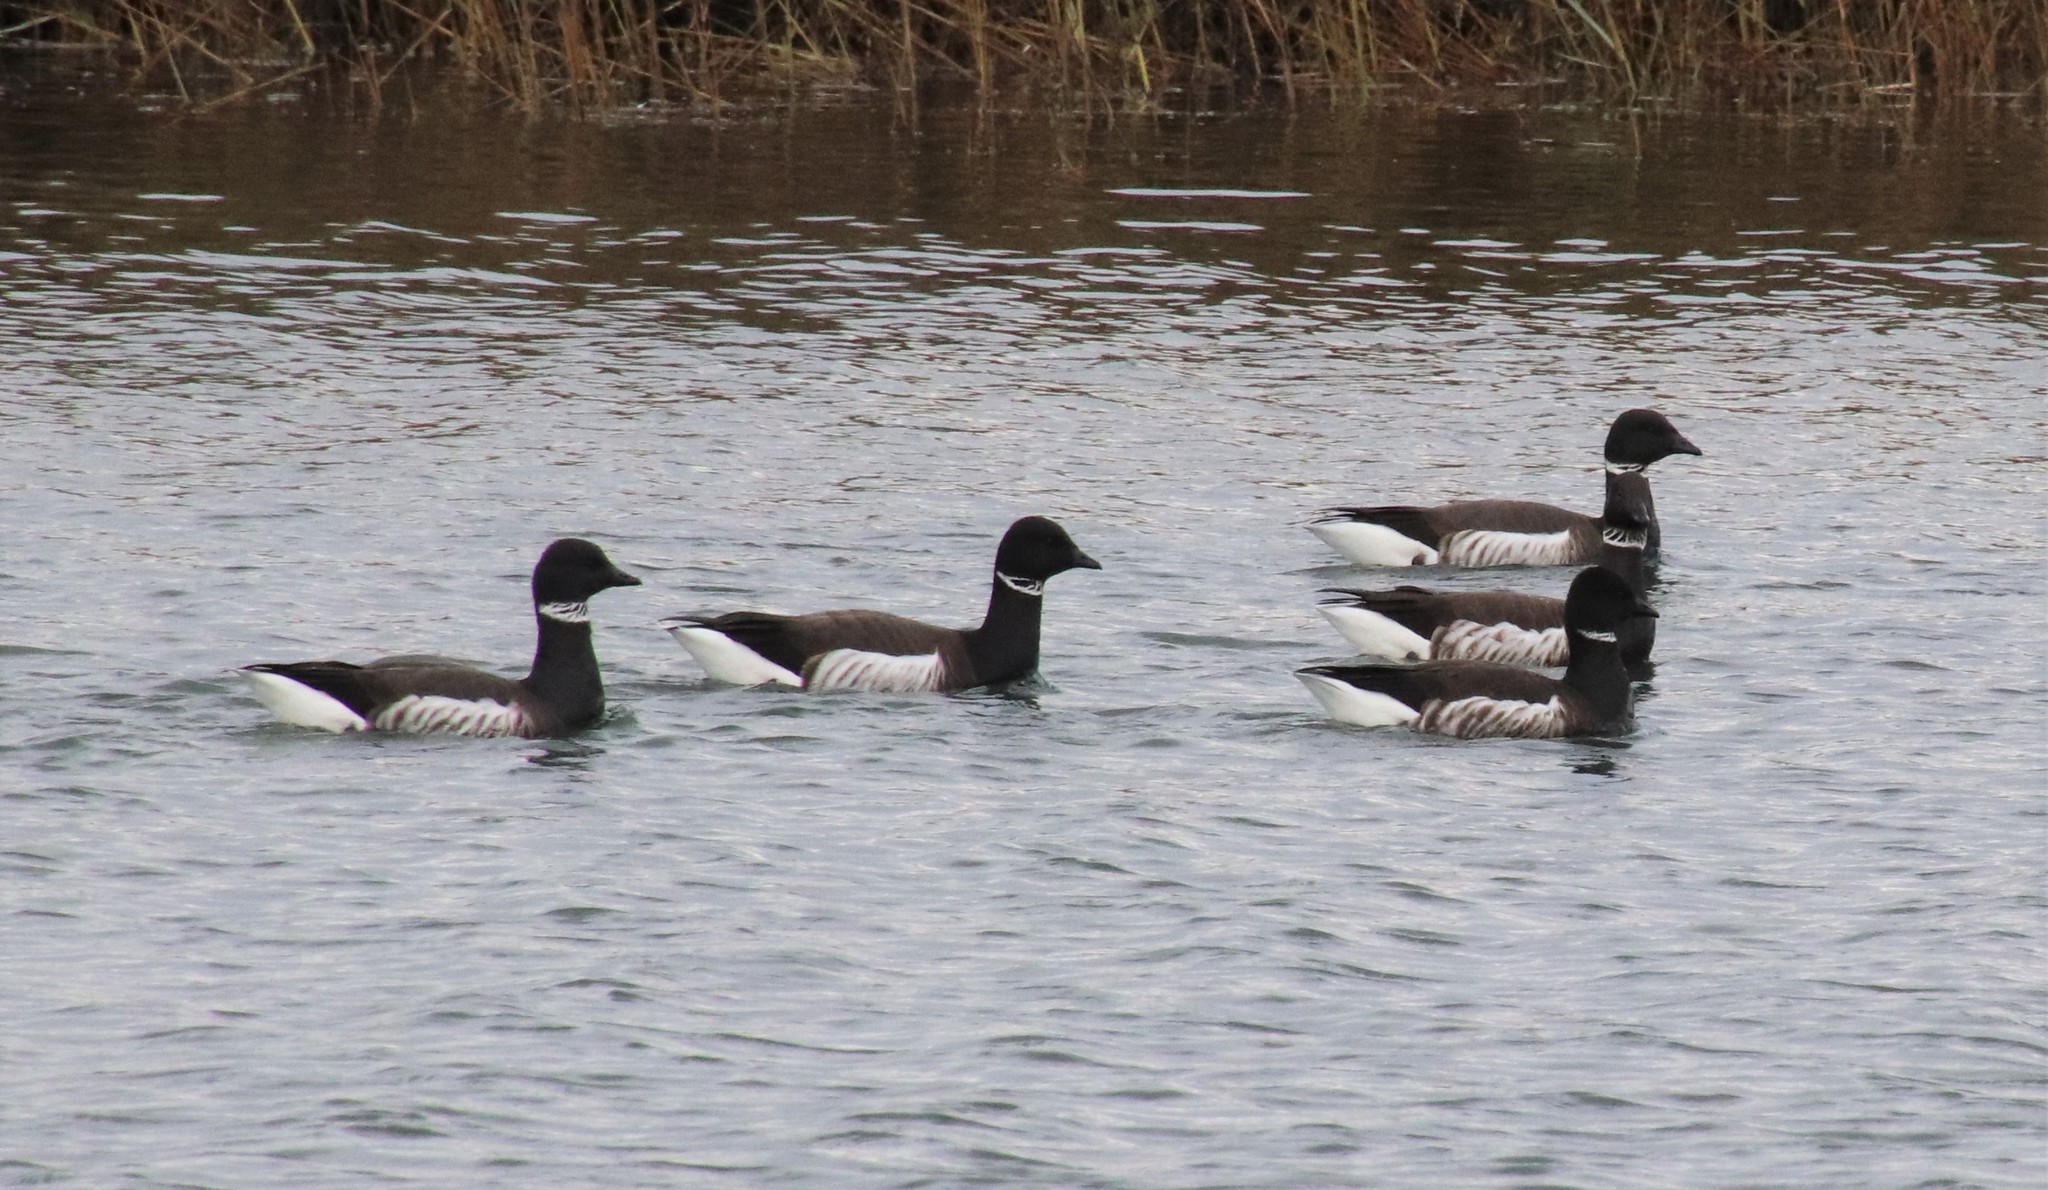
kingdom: Animalia
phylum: Chordata
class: Aves
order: Anseriformes
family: Anatidae
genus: Branta
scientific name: Branta bernicla
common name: Brant goose
